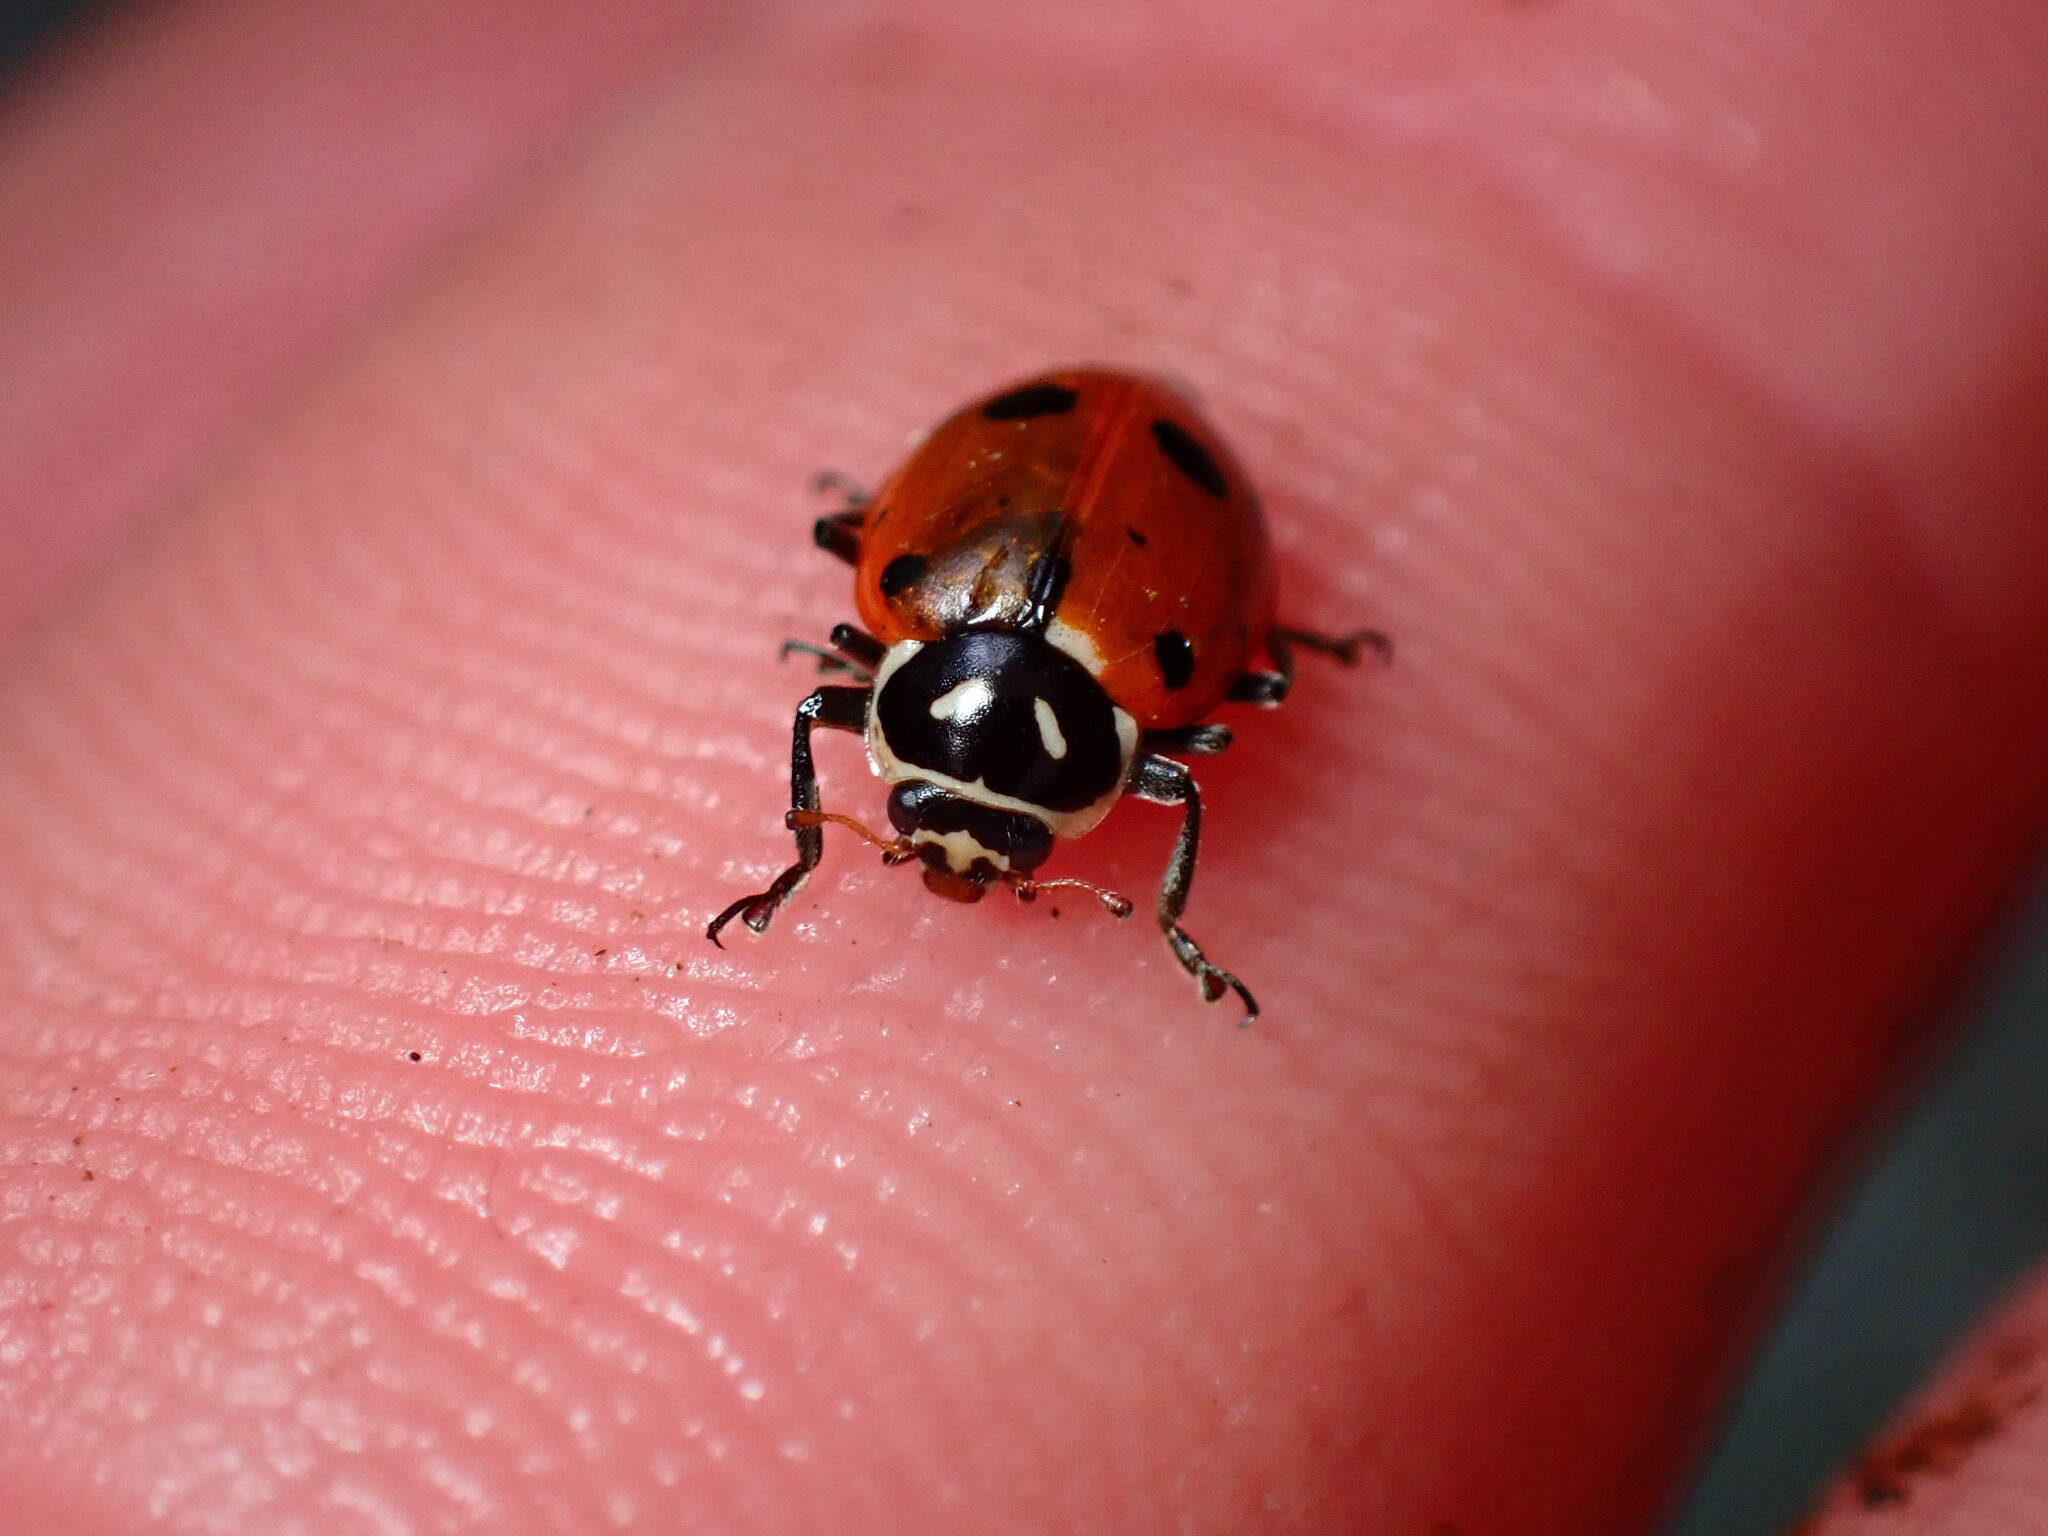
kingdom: Animalia
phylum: Arthropoda
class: Insecta
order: Coleoptera
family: Coccinellidae
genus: Hippodamia
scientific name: Hippodamia convergens
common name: Convergent lady beetle
